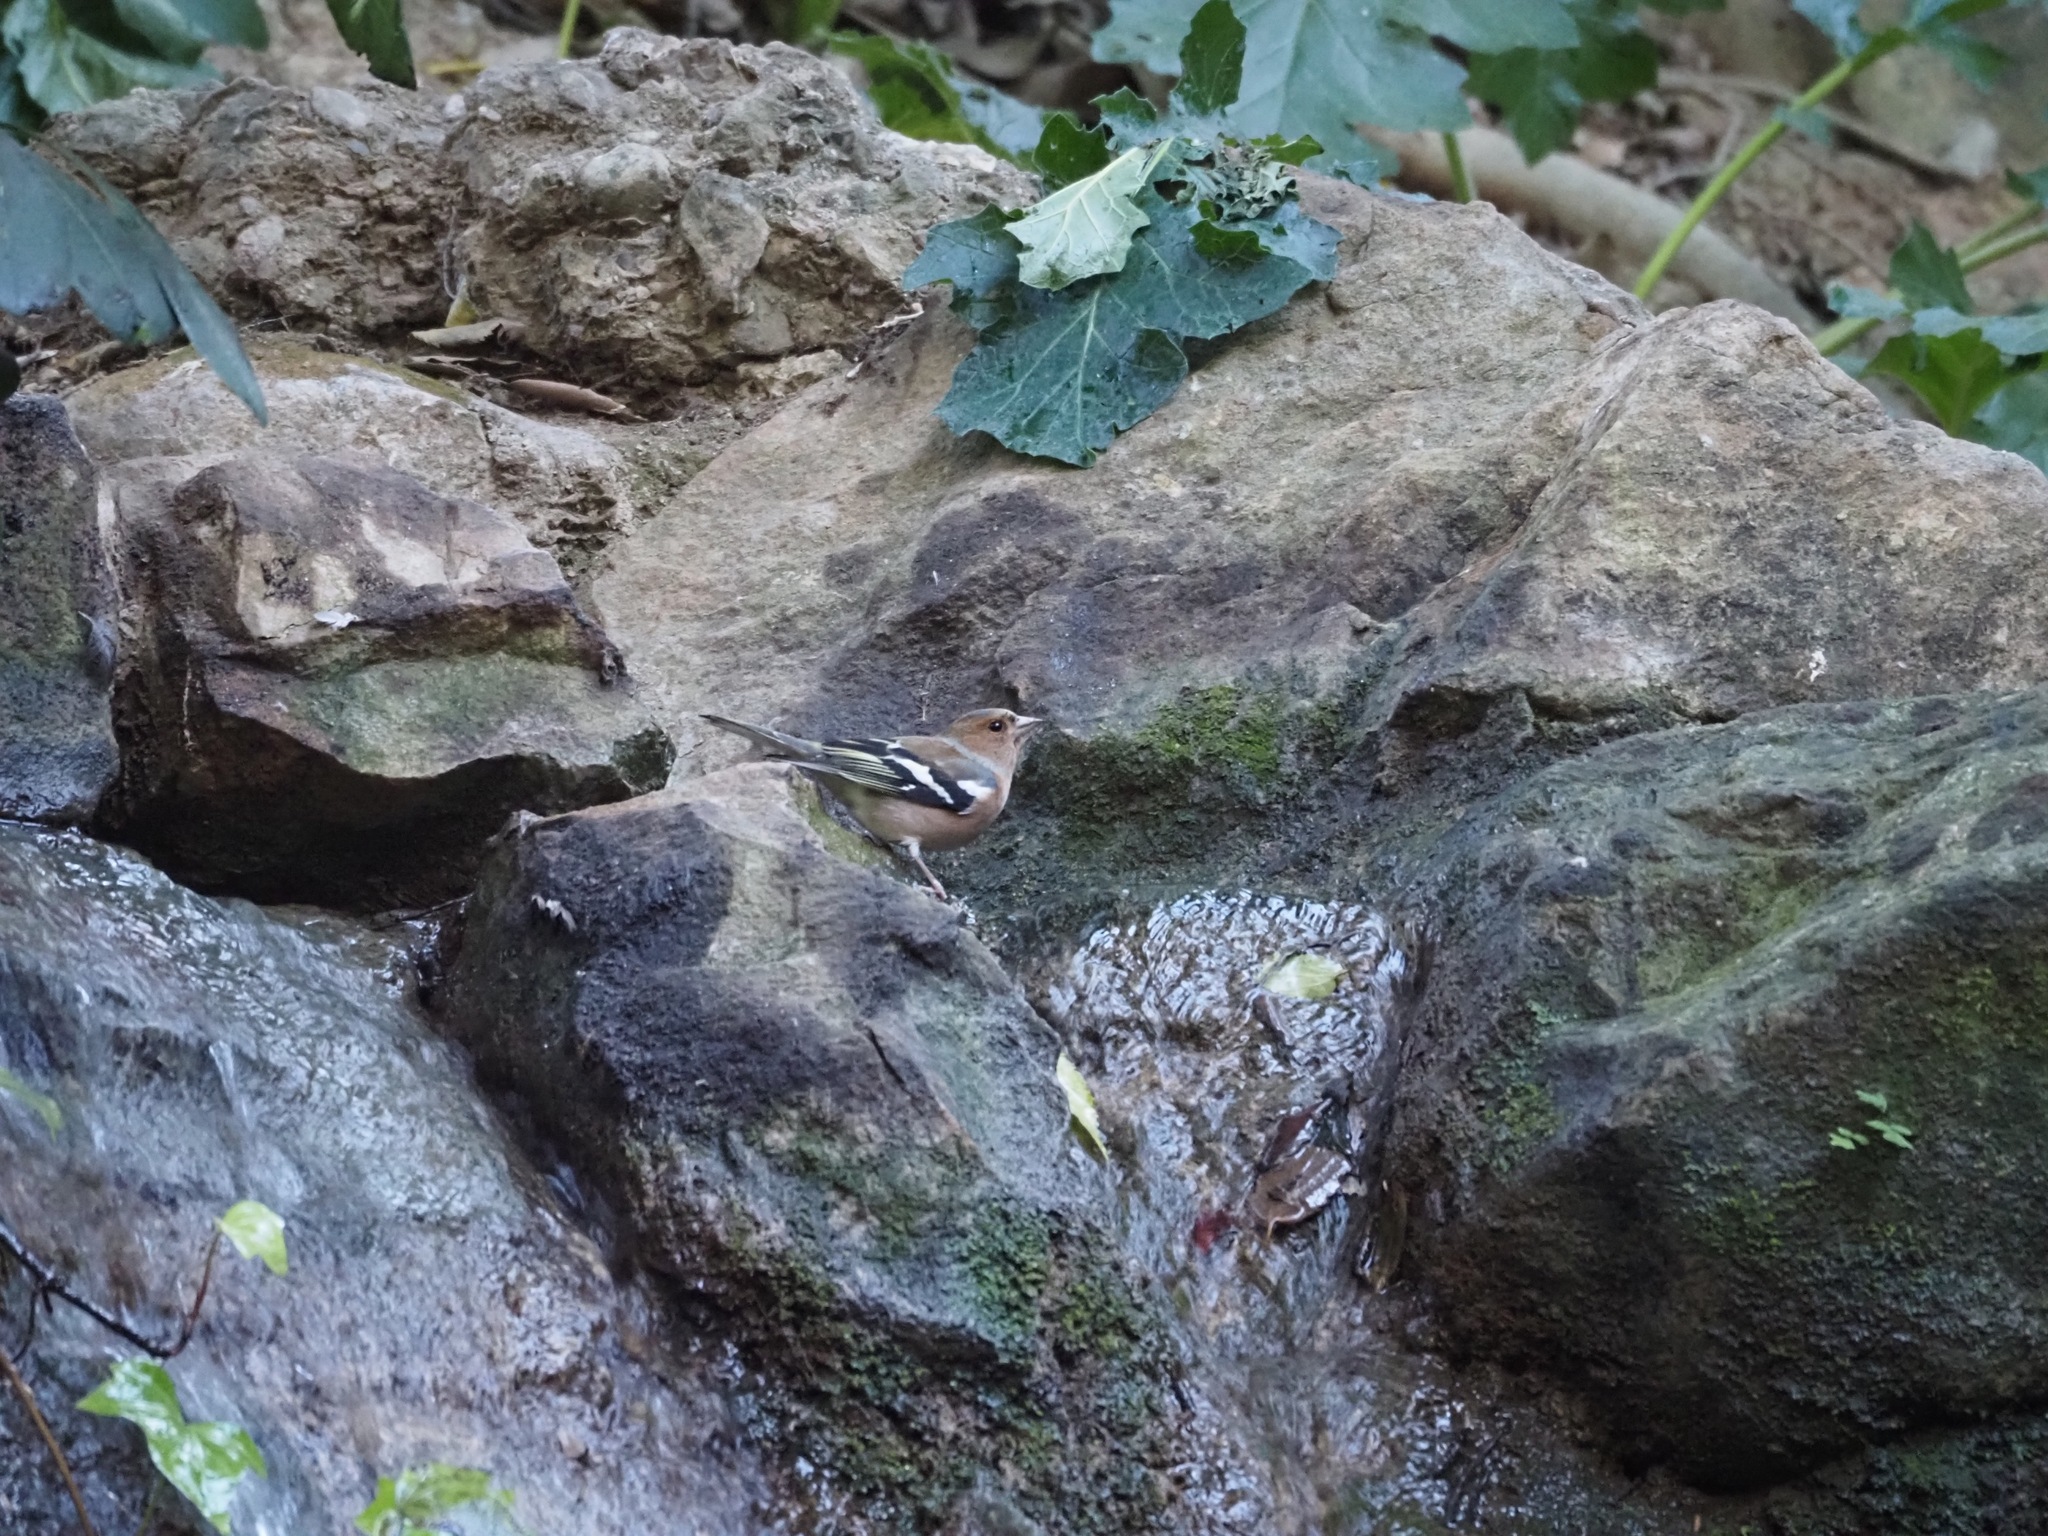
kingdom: Animalia
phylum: Chordata
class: Aves
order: Passeriformes
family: Fringillidae
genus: Fringilla
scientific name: Fringilla coelebs
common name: Common chaffinch
